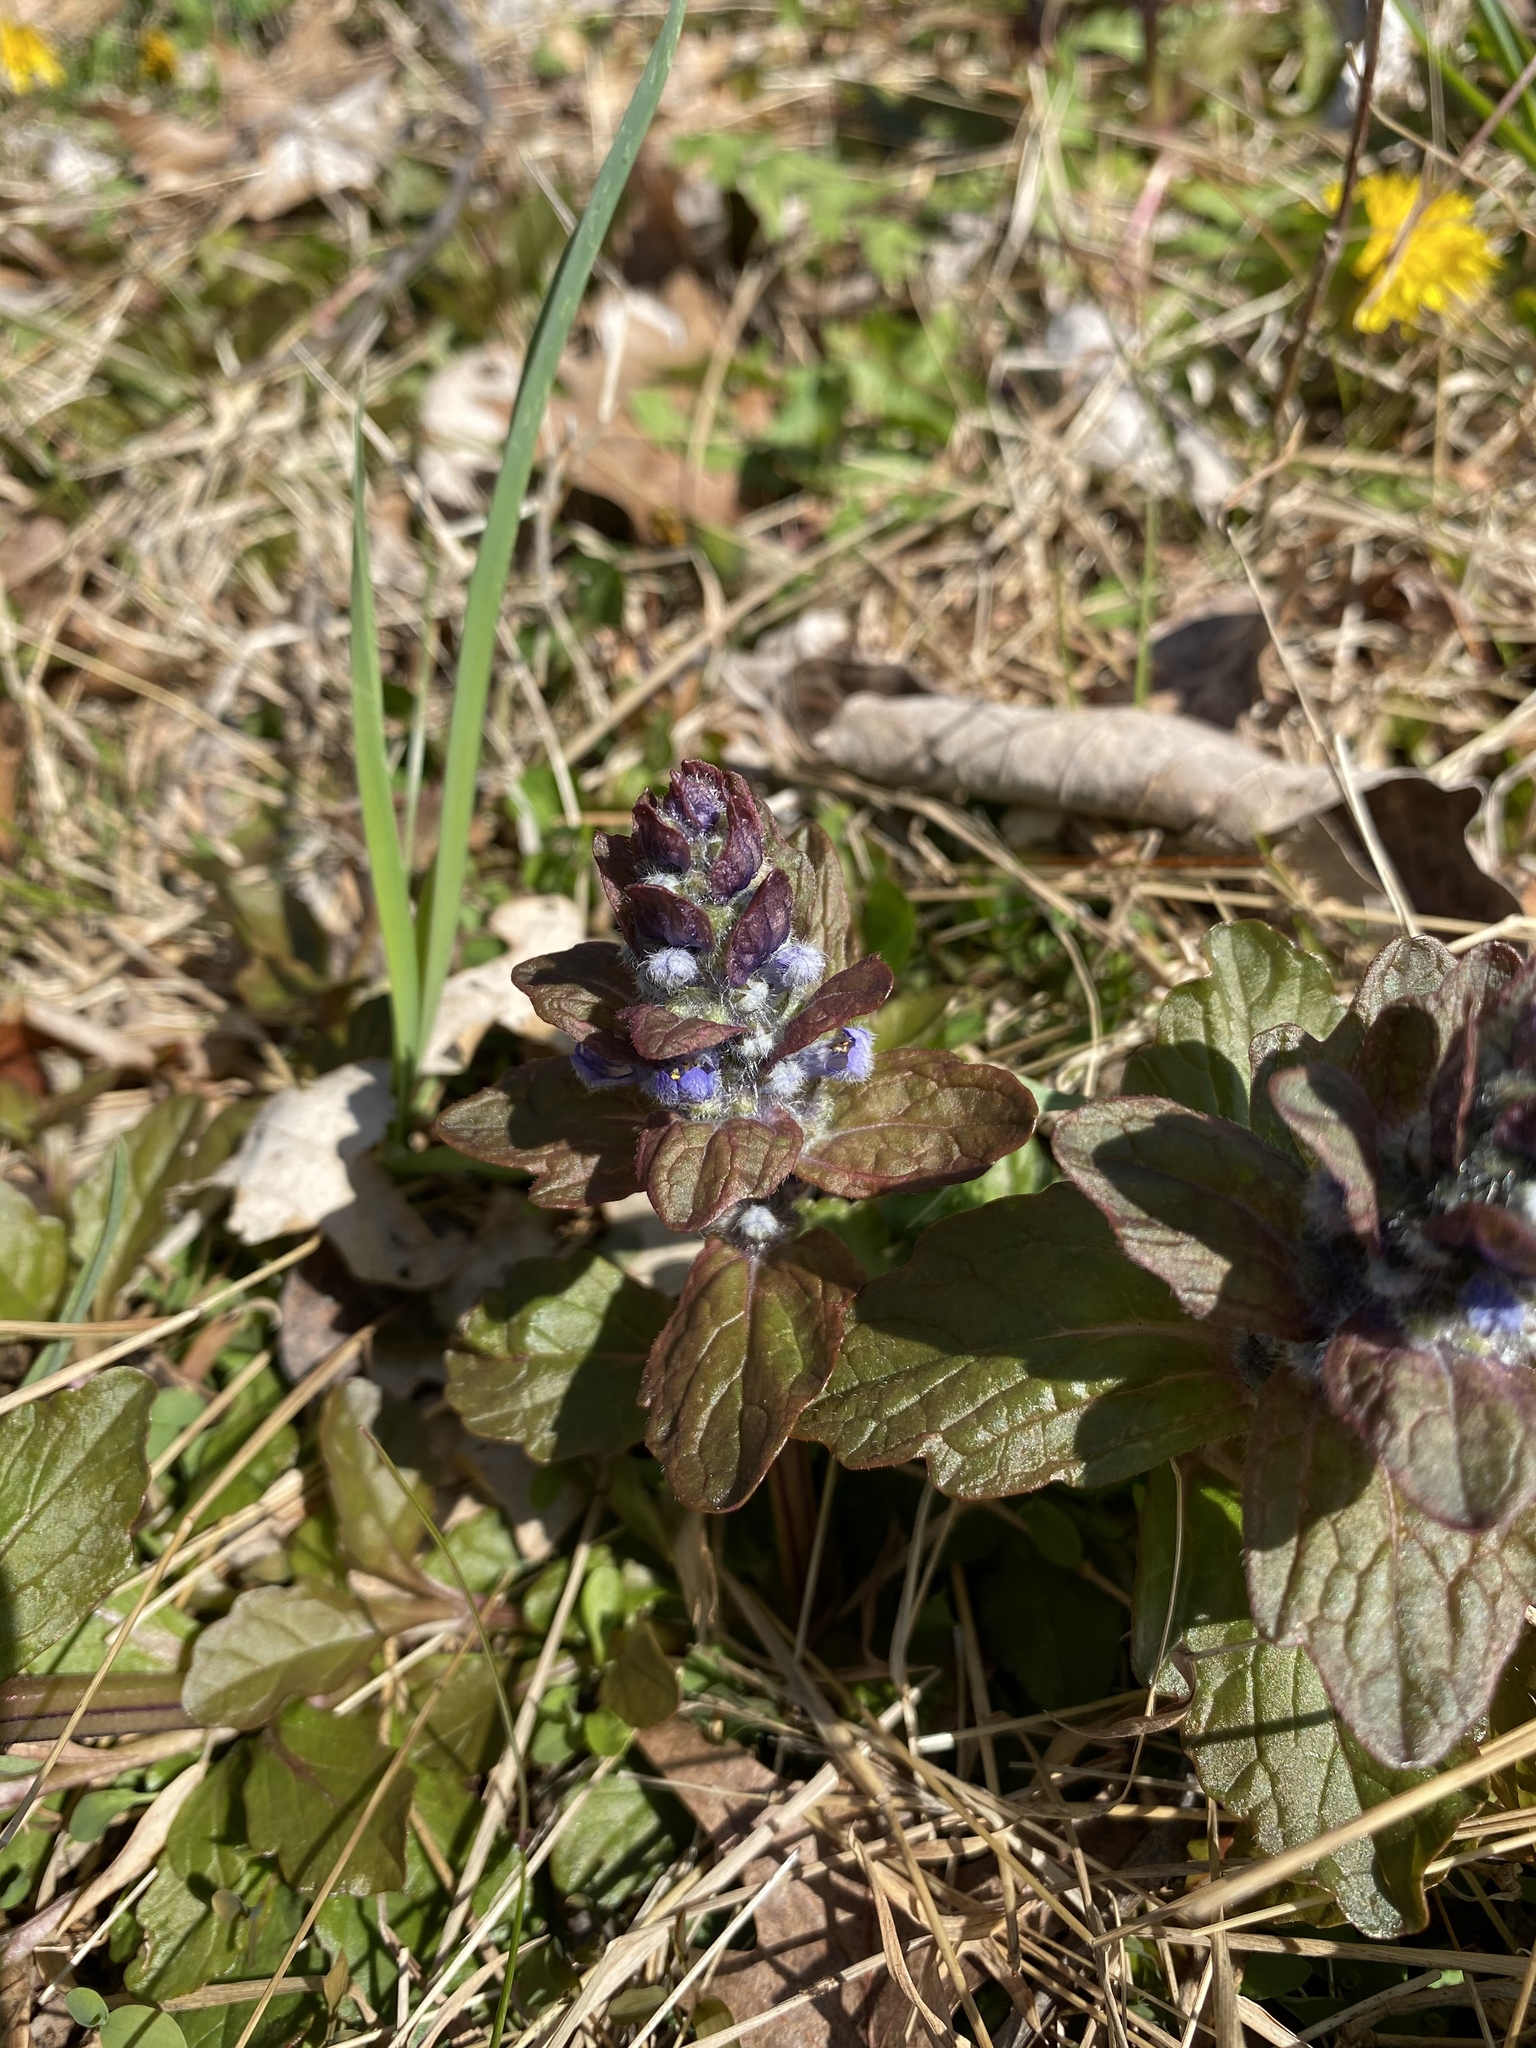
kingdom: Plantae
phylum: Tracheophyta
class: Magnoliopsida
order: Lamiales
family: Lamiaceae
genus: Ajuga
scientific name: Ajuga reptans
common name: Bugle
